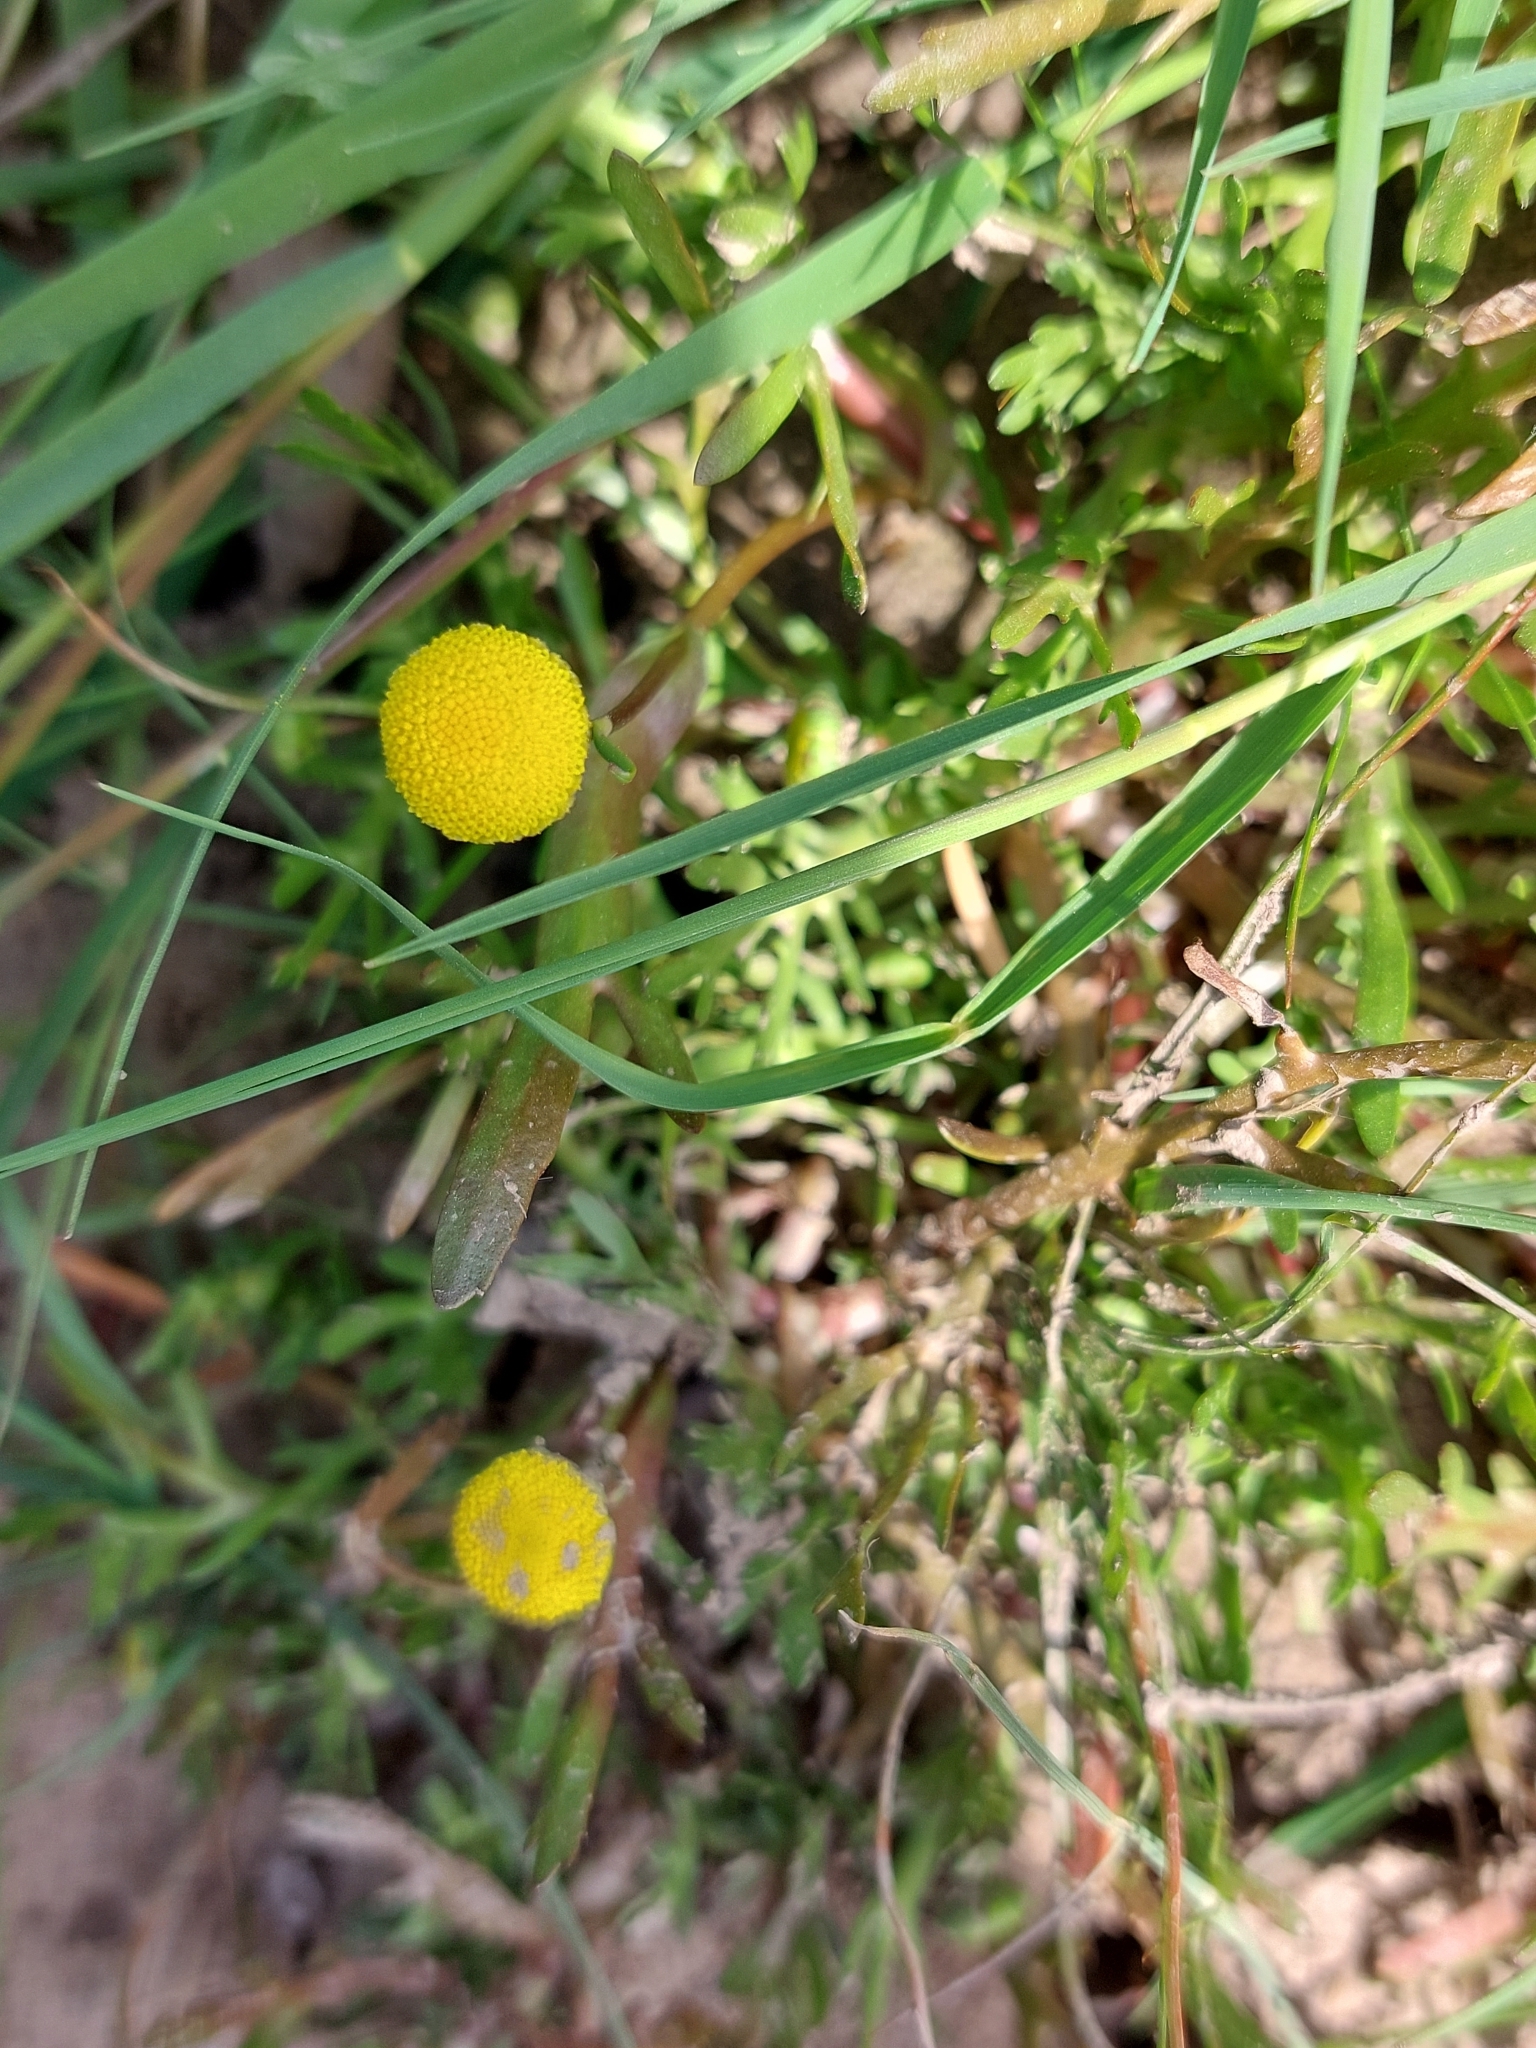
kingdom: Plantae
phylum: Tracheophyta
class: Magnoliopsida
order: Asterales
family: Asteraceae
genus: Cotula
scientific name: Cotula coronopifolia
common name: Buttonweed
